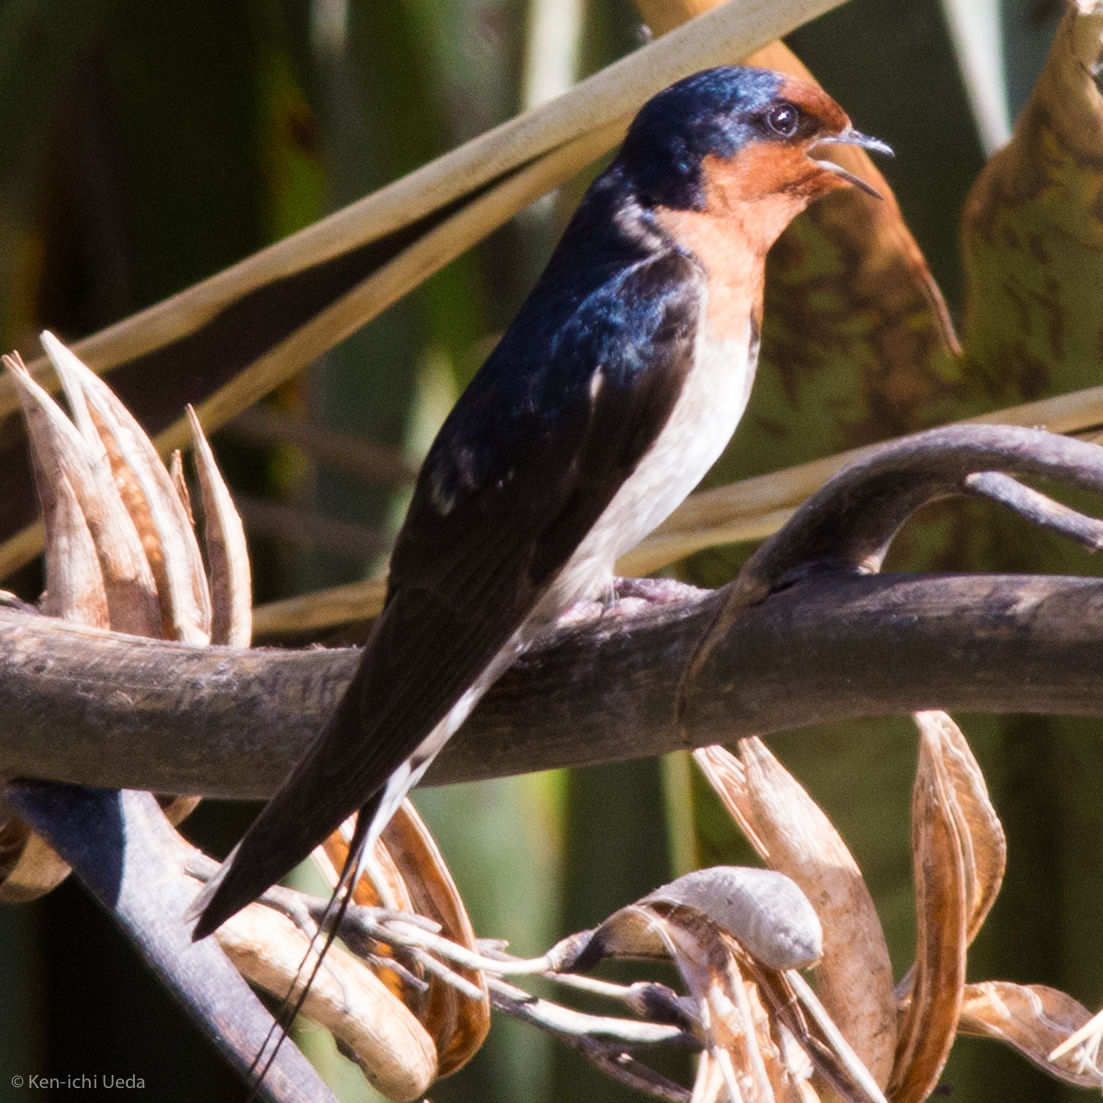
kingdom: Animalia
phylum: Chordata
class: Aves
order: Passeriformes
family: Hirundinidae
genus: Hirundo
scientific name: Hirundo neoxena
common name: Welcome swallow
